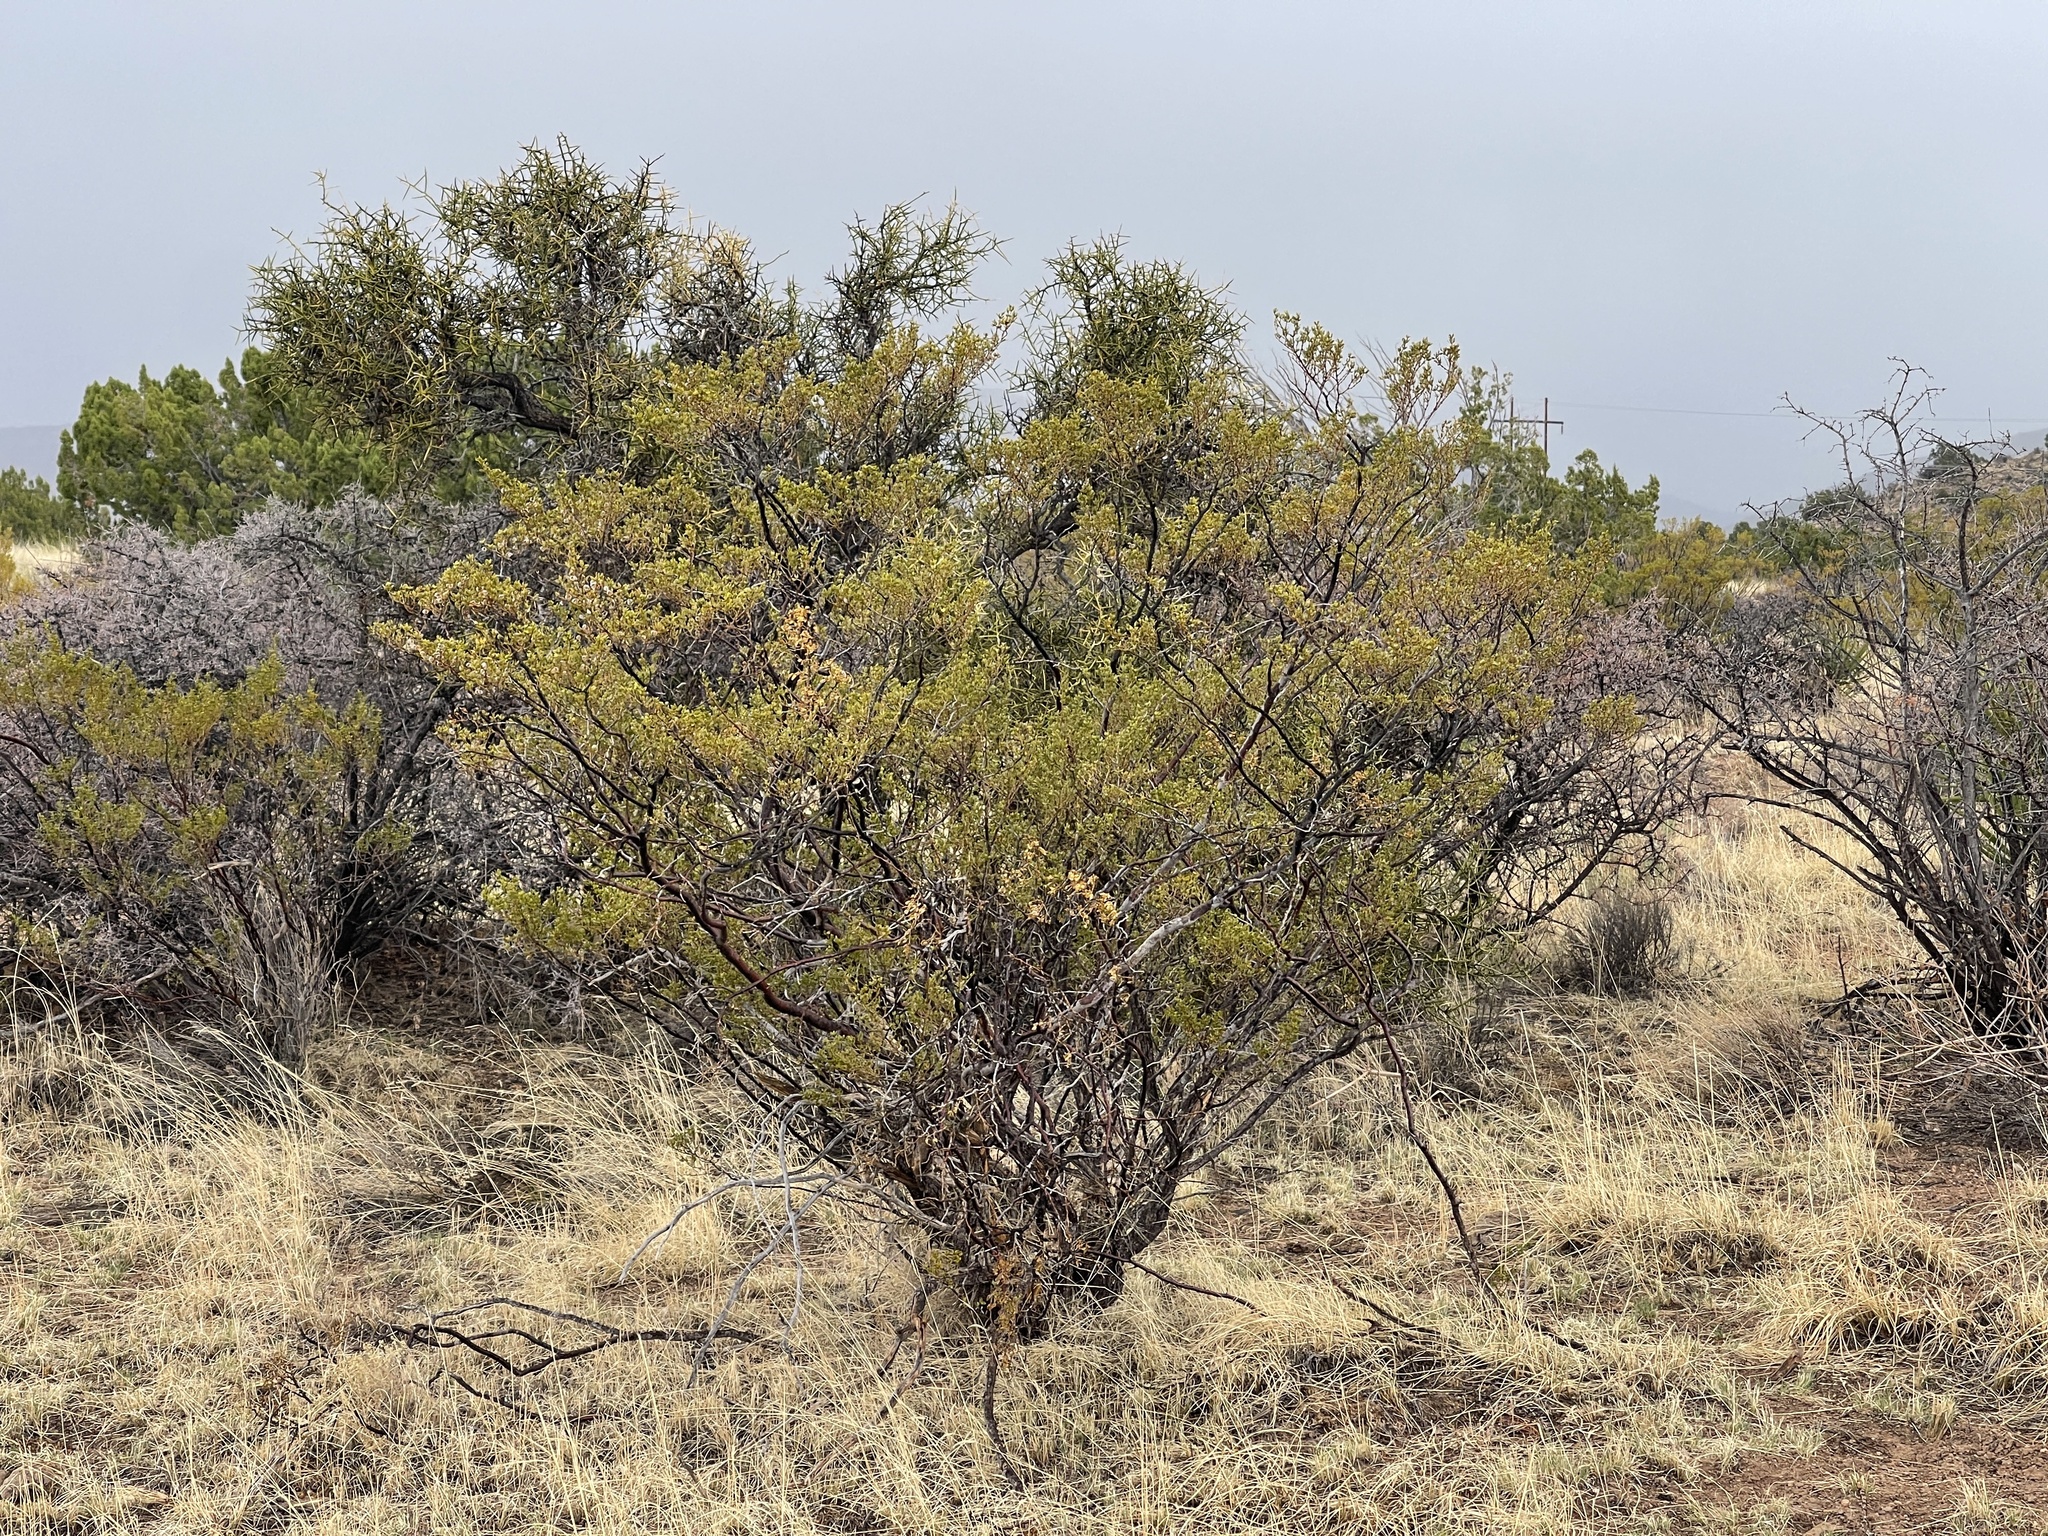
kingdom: Plantae
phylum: Tracheophyta
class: Magnoliopsida
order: Zygophyllales
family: Zygophyllaceae
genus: Larrea
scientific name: Larrea tridentata
